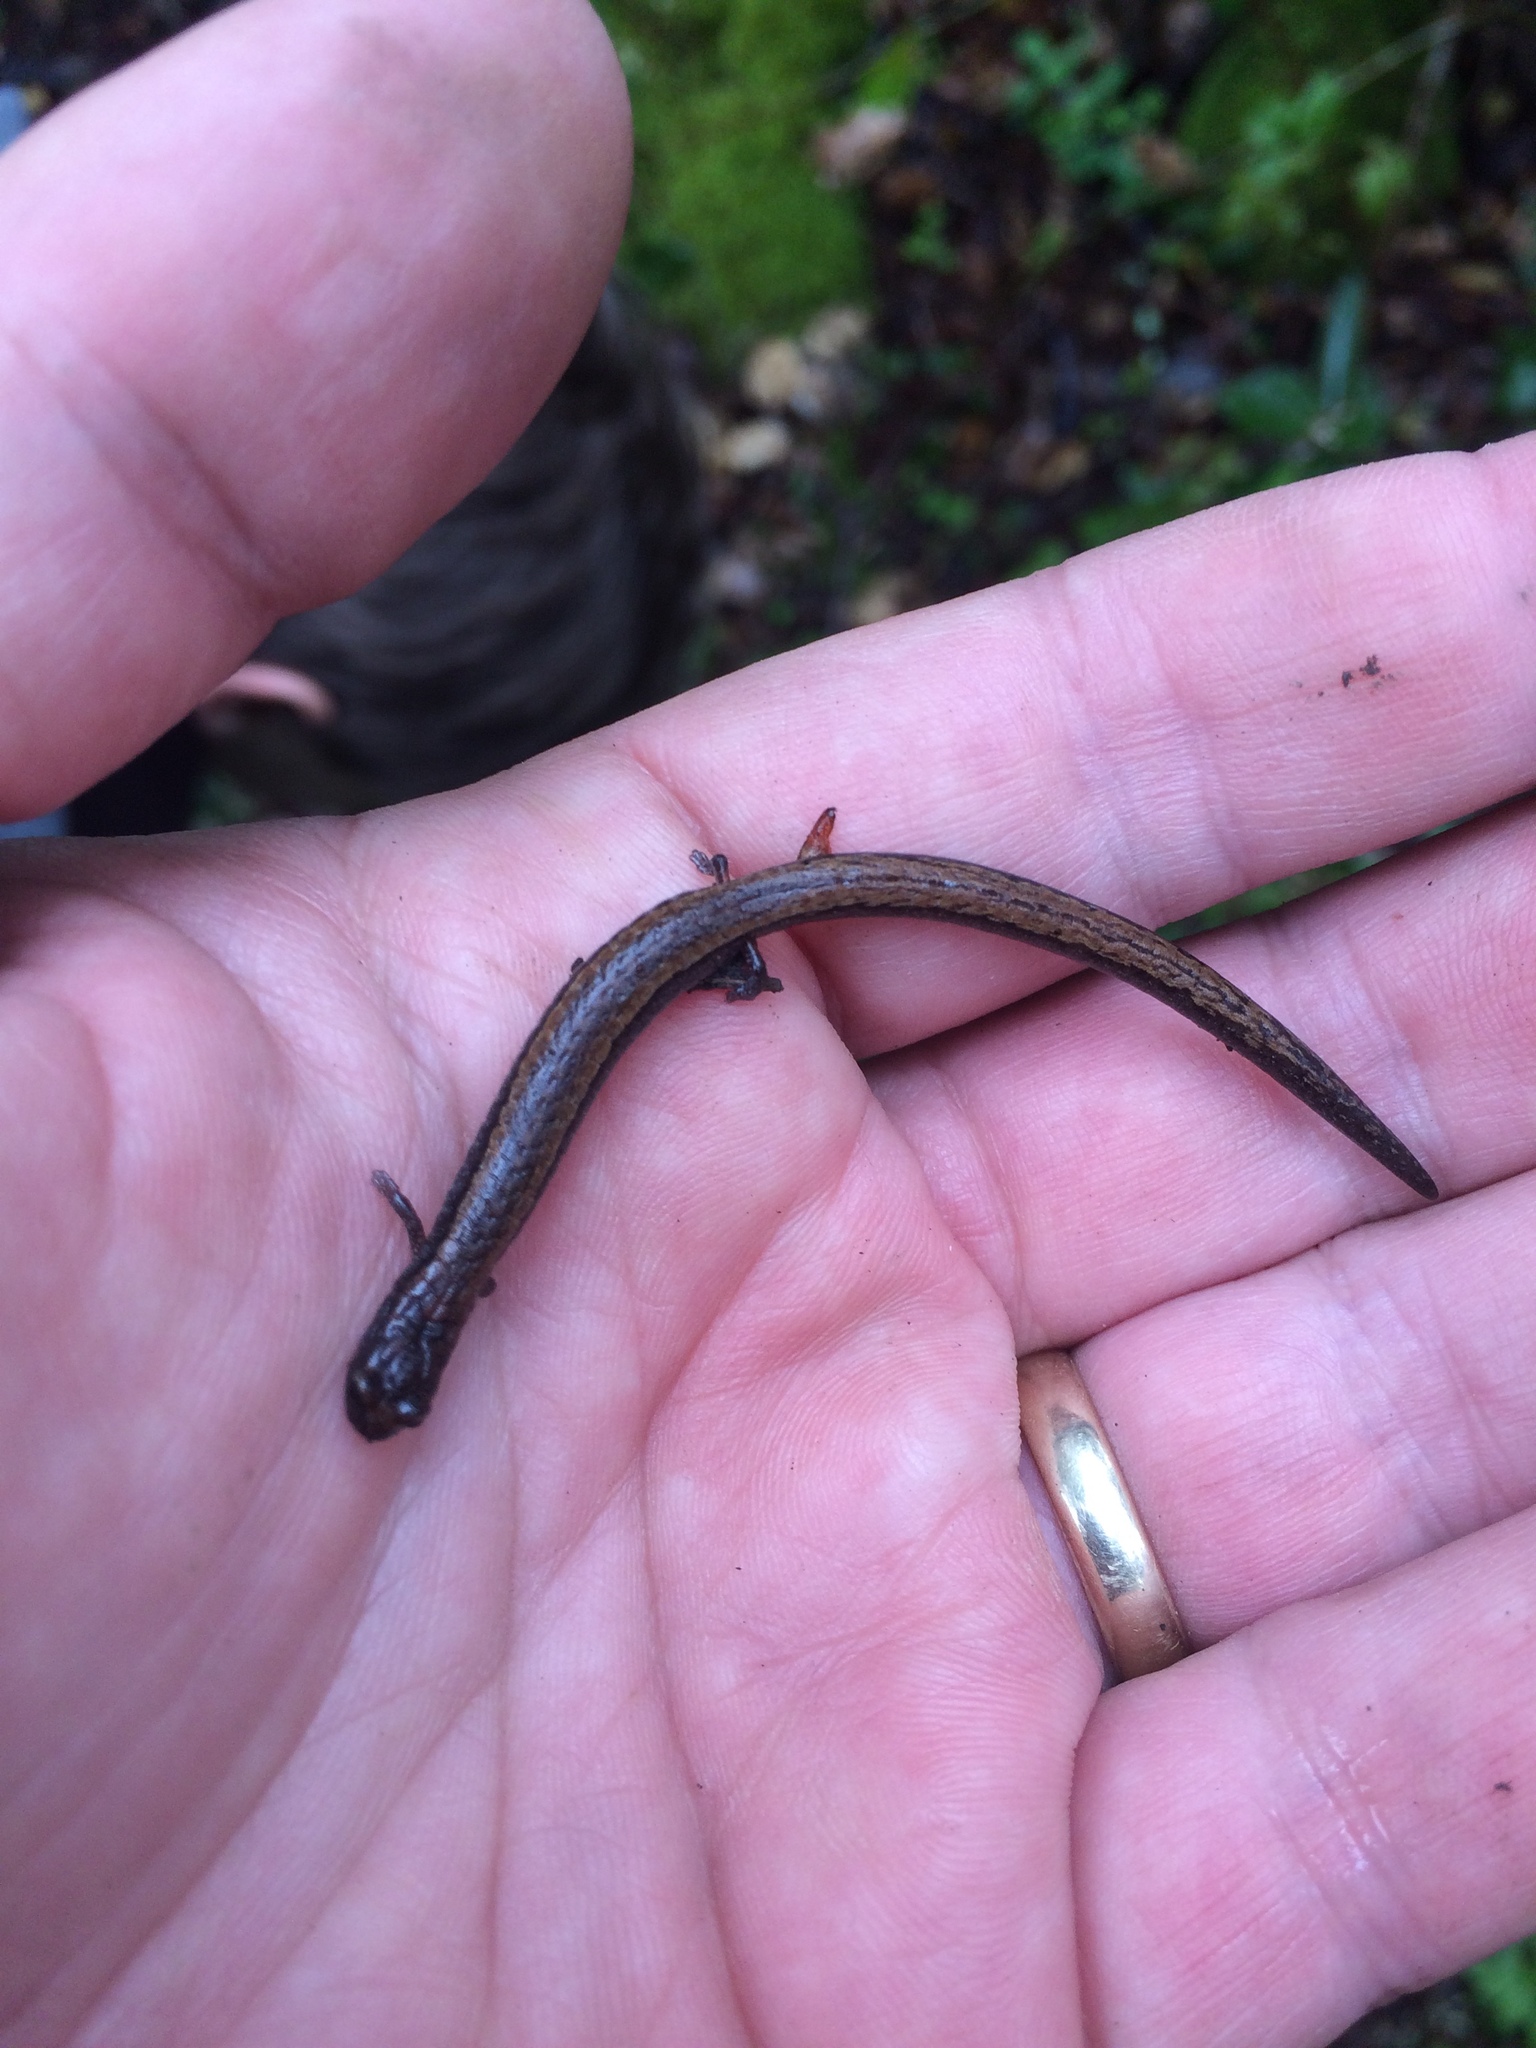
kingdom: Animalia
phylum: Chordata
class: Amphibia
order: Caudata
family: Plethodontidae
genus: Batrachoseps
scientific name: Batrachoseps attenuatus
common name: California slender salamander
